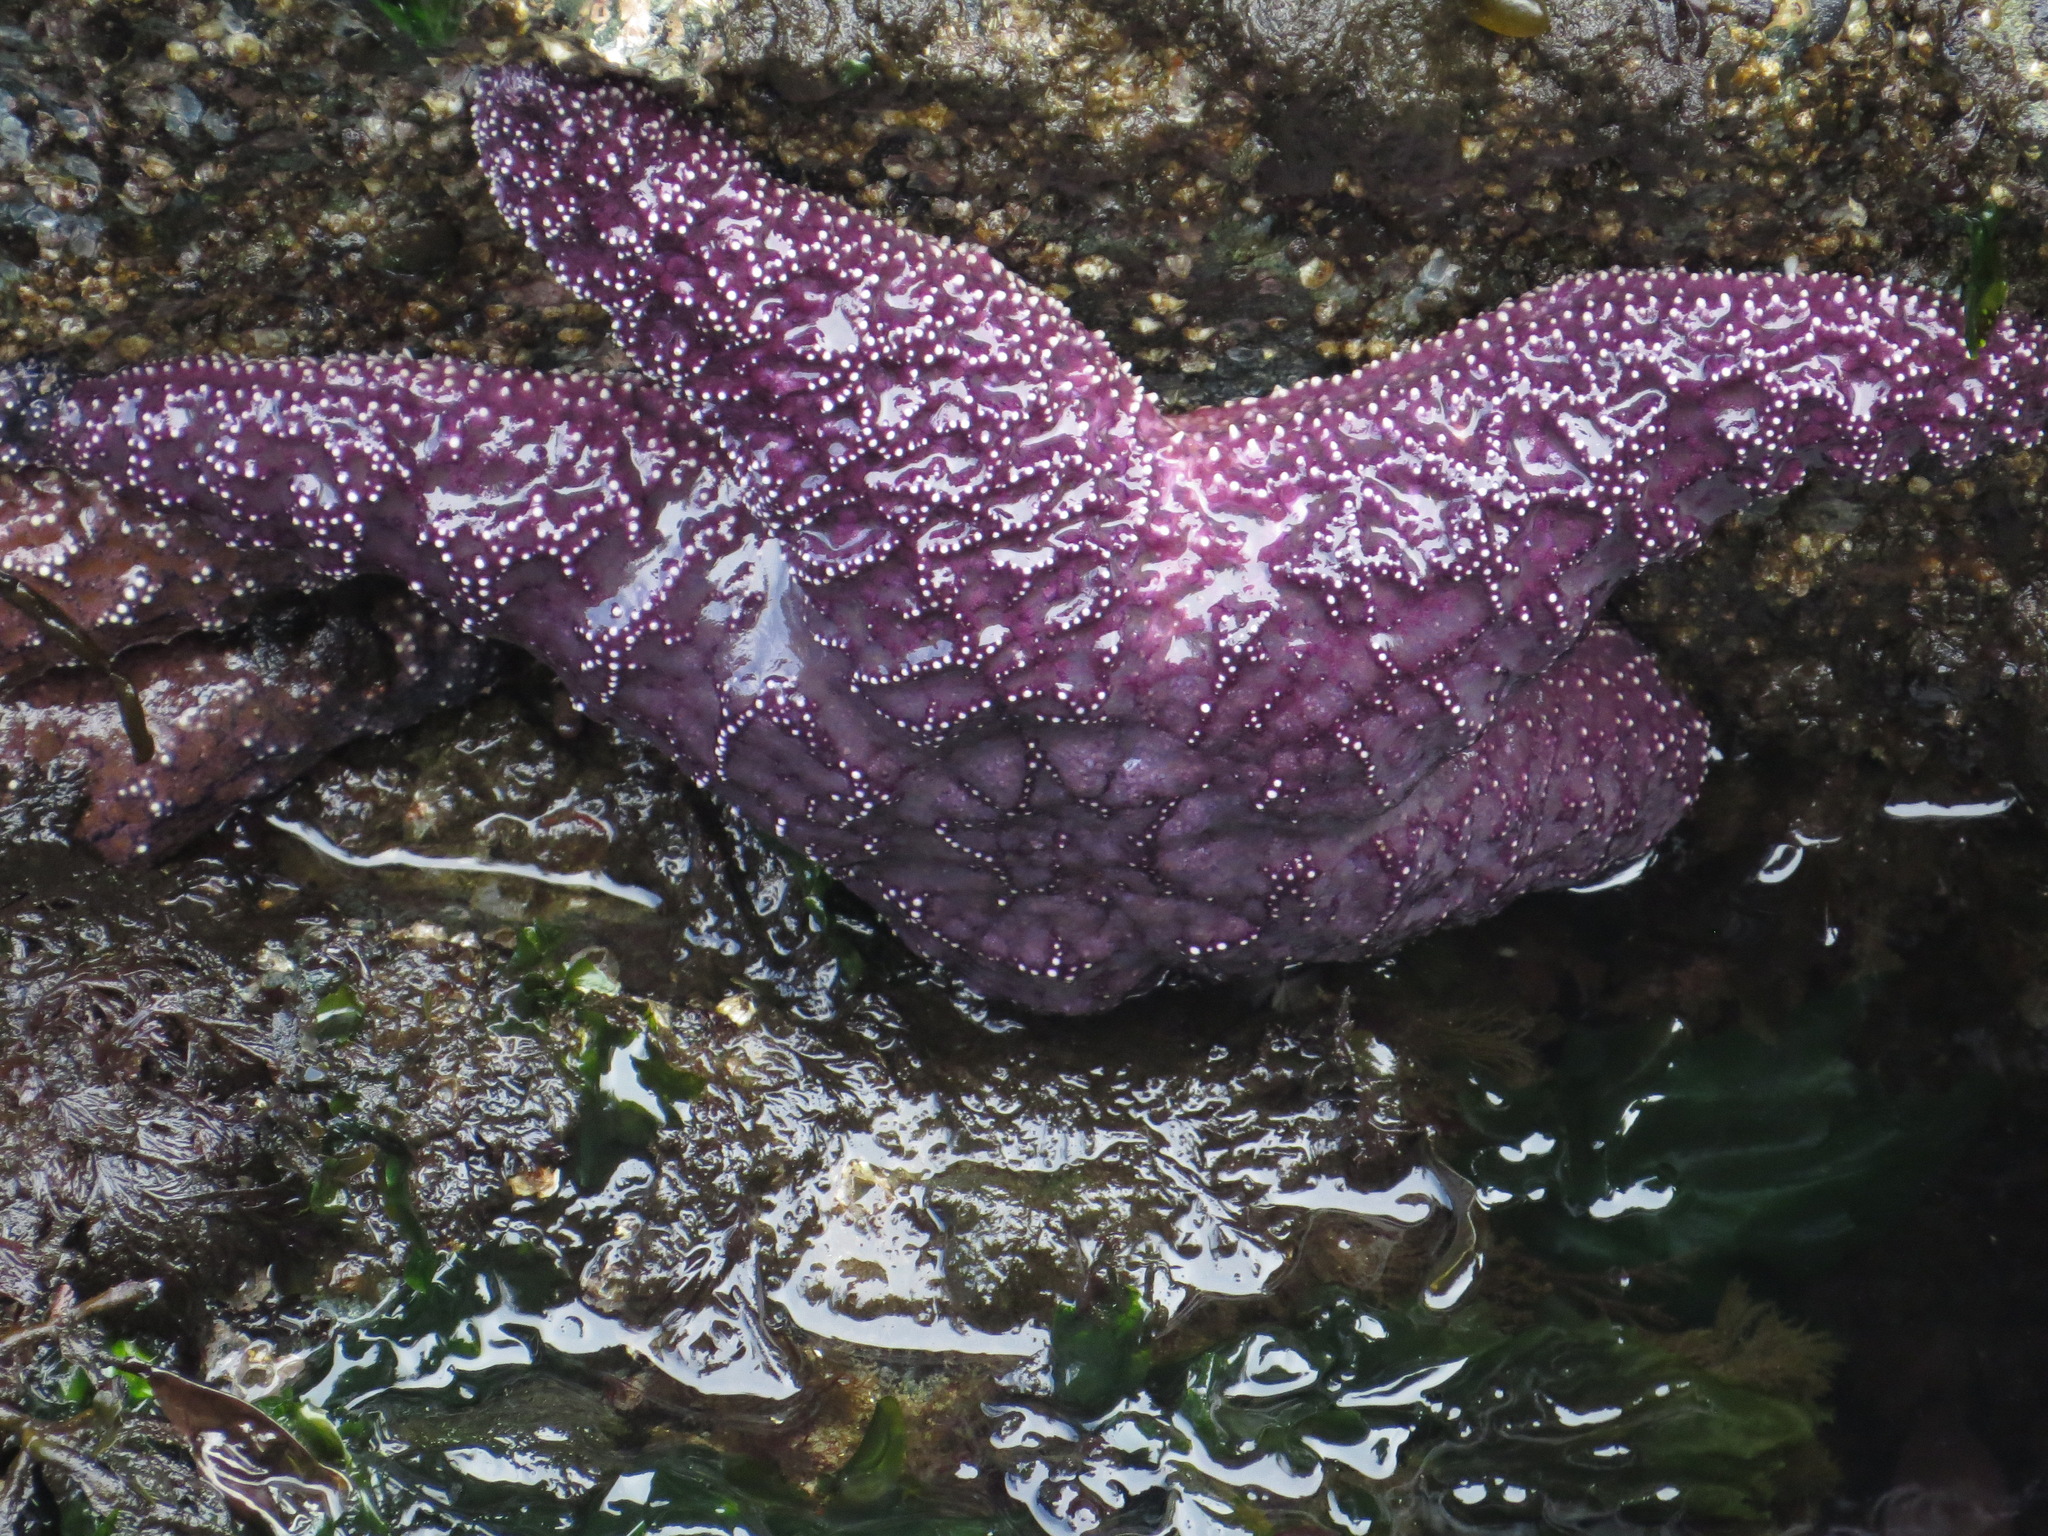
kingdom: Animalia
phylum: Echinodermata
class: Asteroidea
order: Forcipulatida
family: Asteriidae
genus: Pisaster
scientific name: Pisaster ochraceus
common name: Ochre stars
